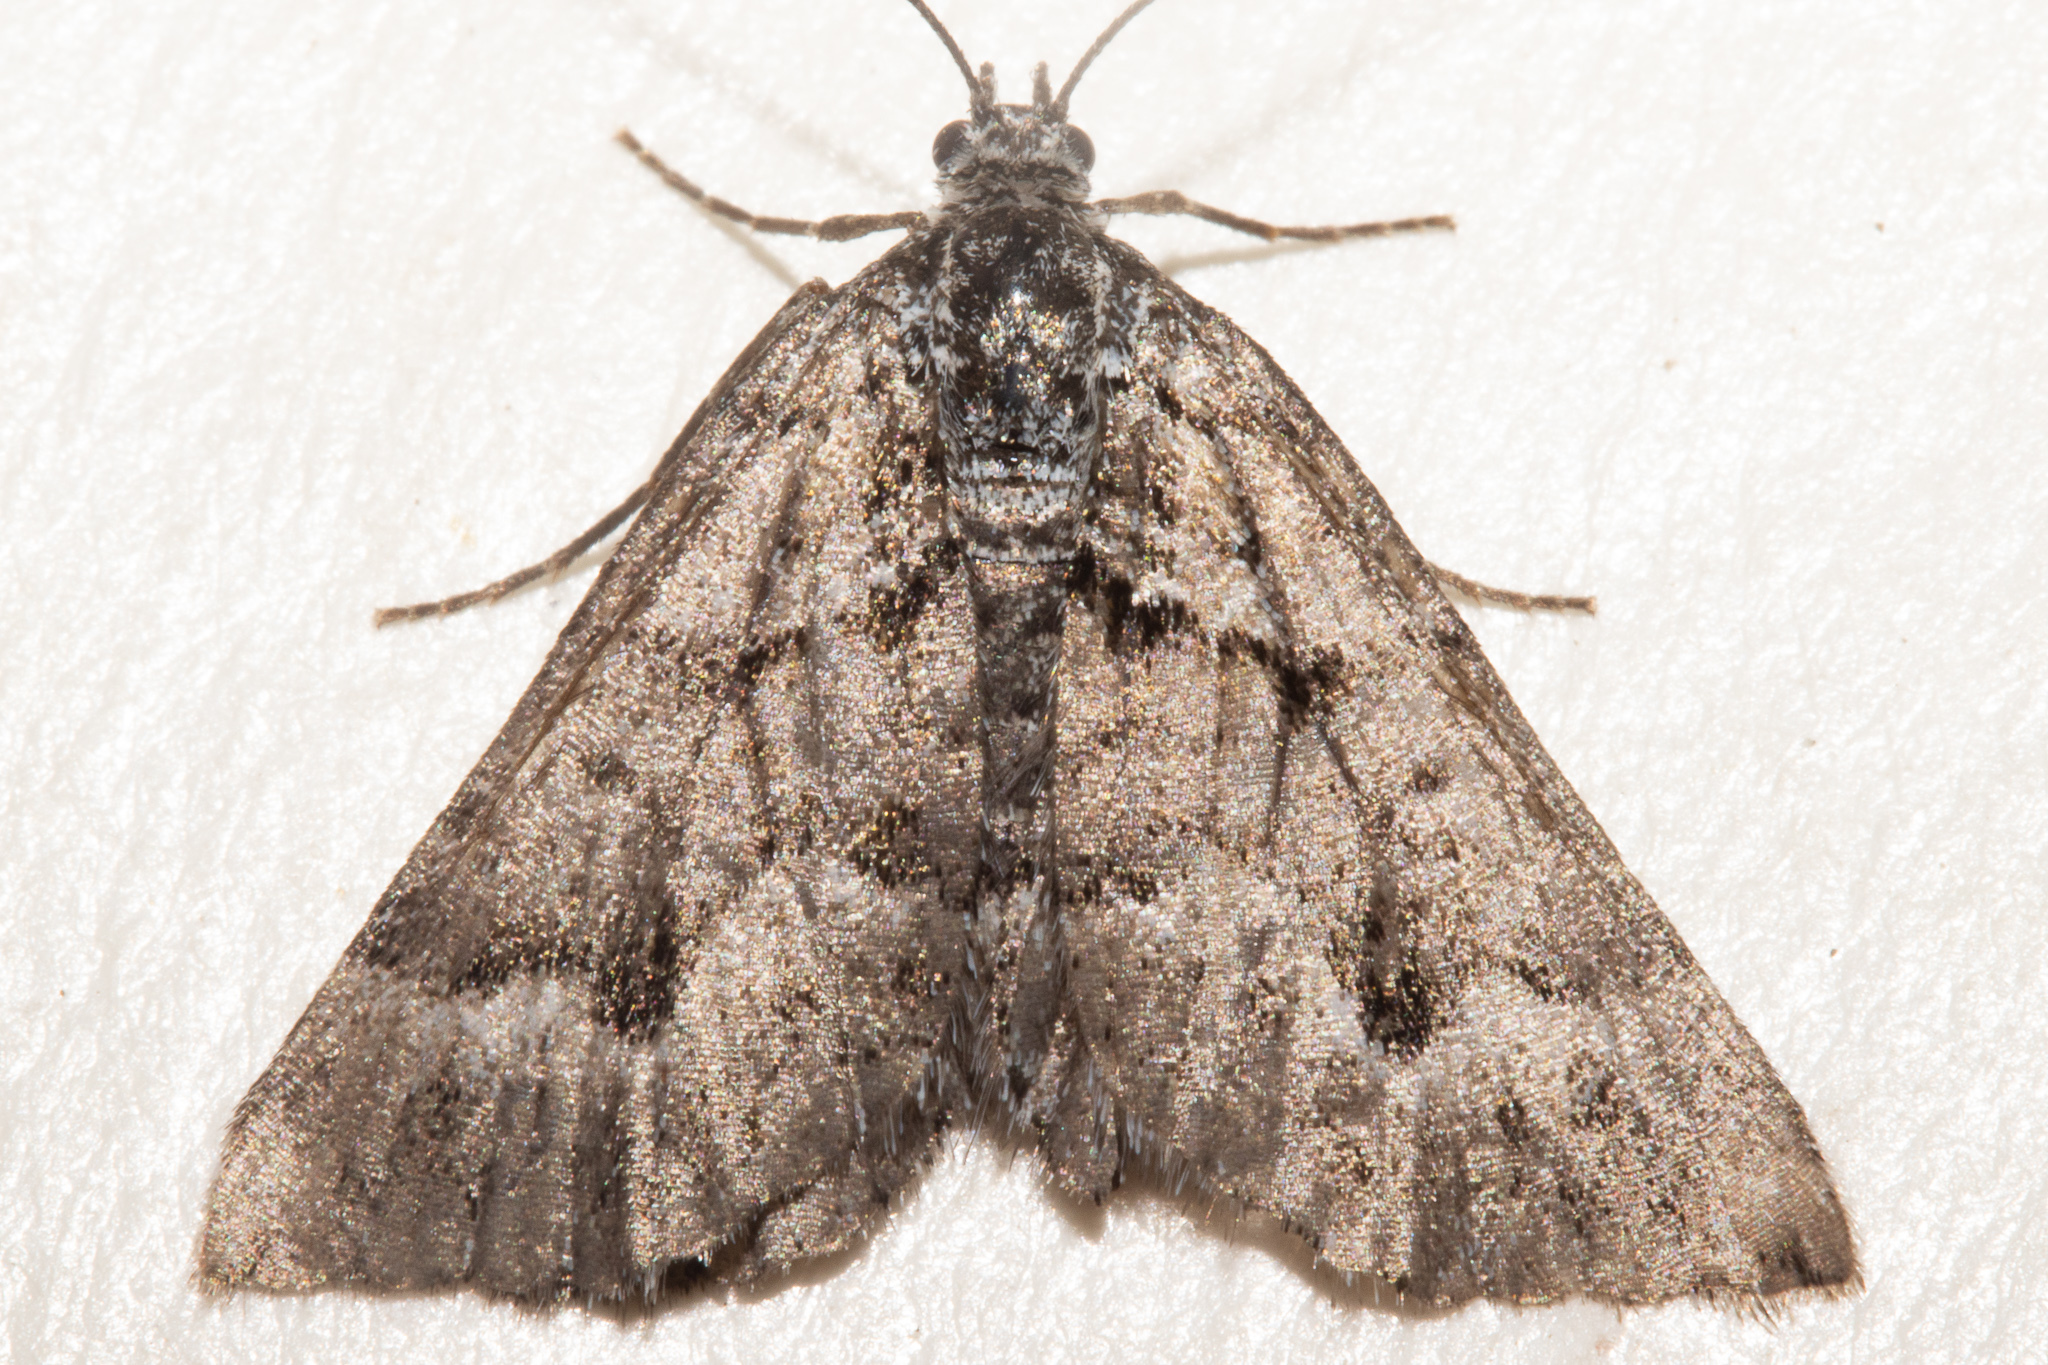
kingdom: Animalia
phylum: Arthropoda
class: Insecta
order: Lepidoptera
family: Geometridae
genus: Aponotoreas
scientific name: Aponotoreas anthracias
